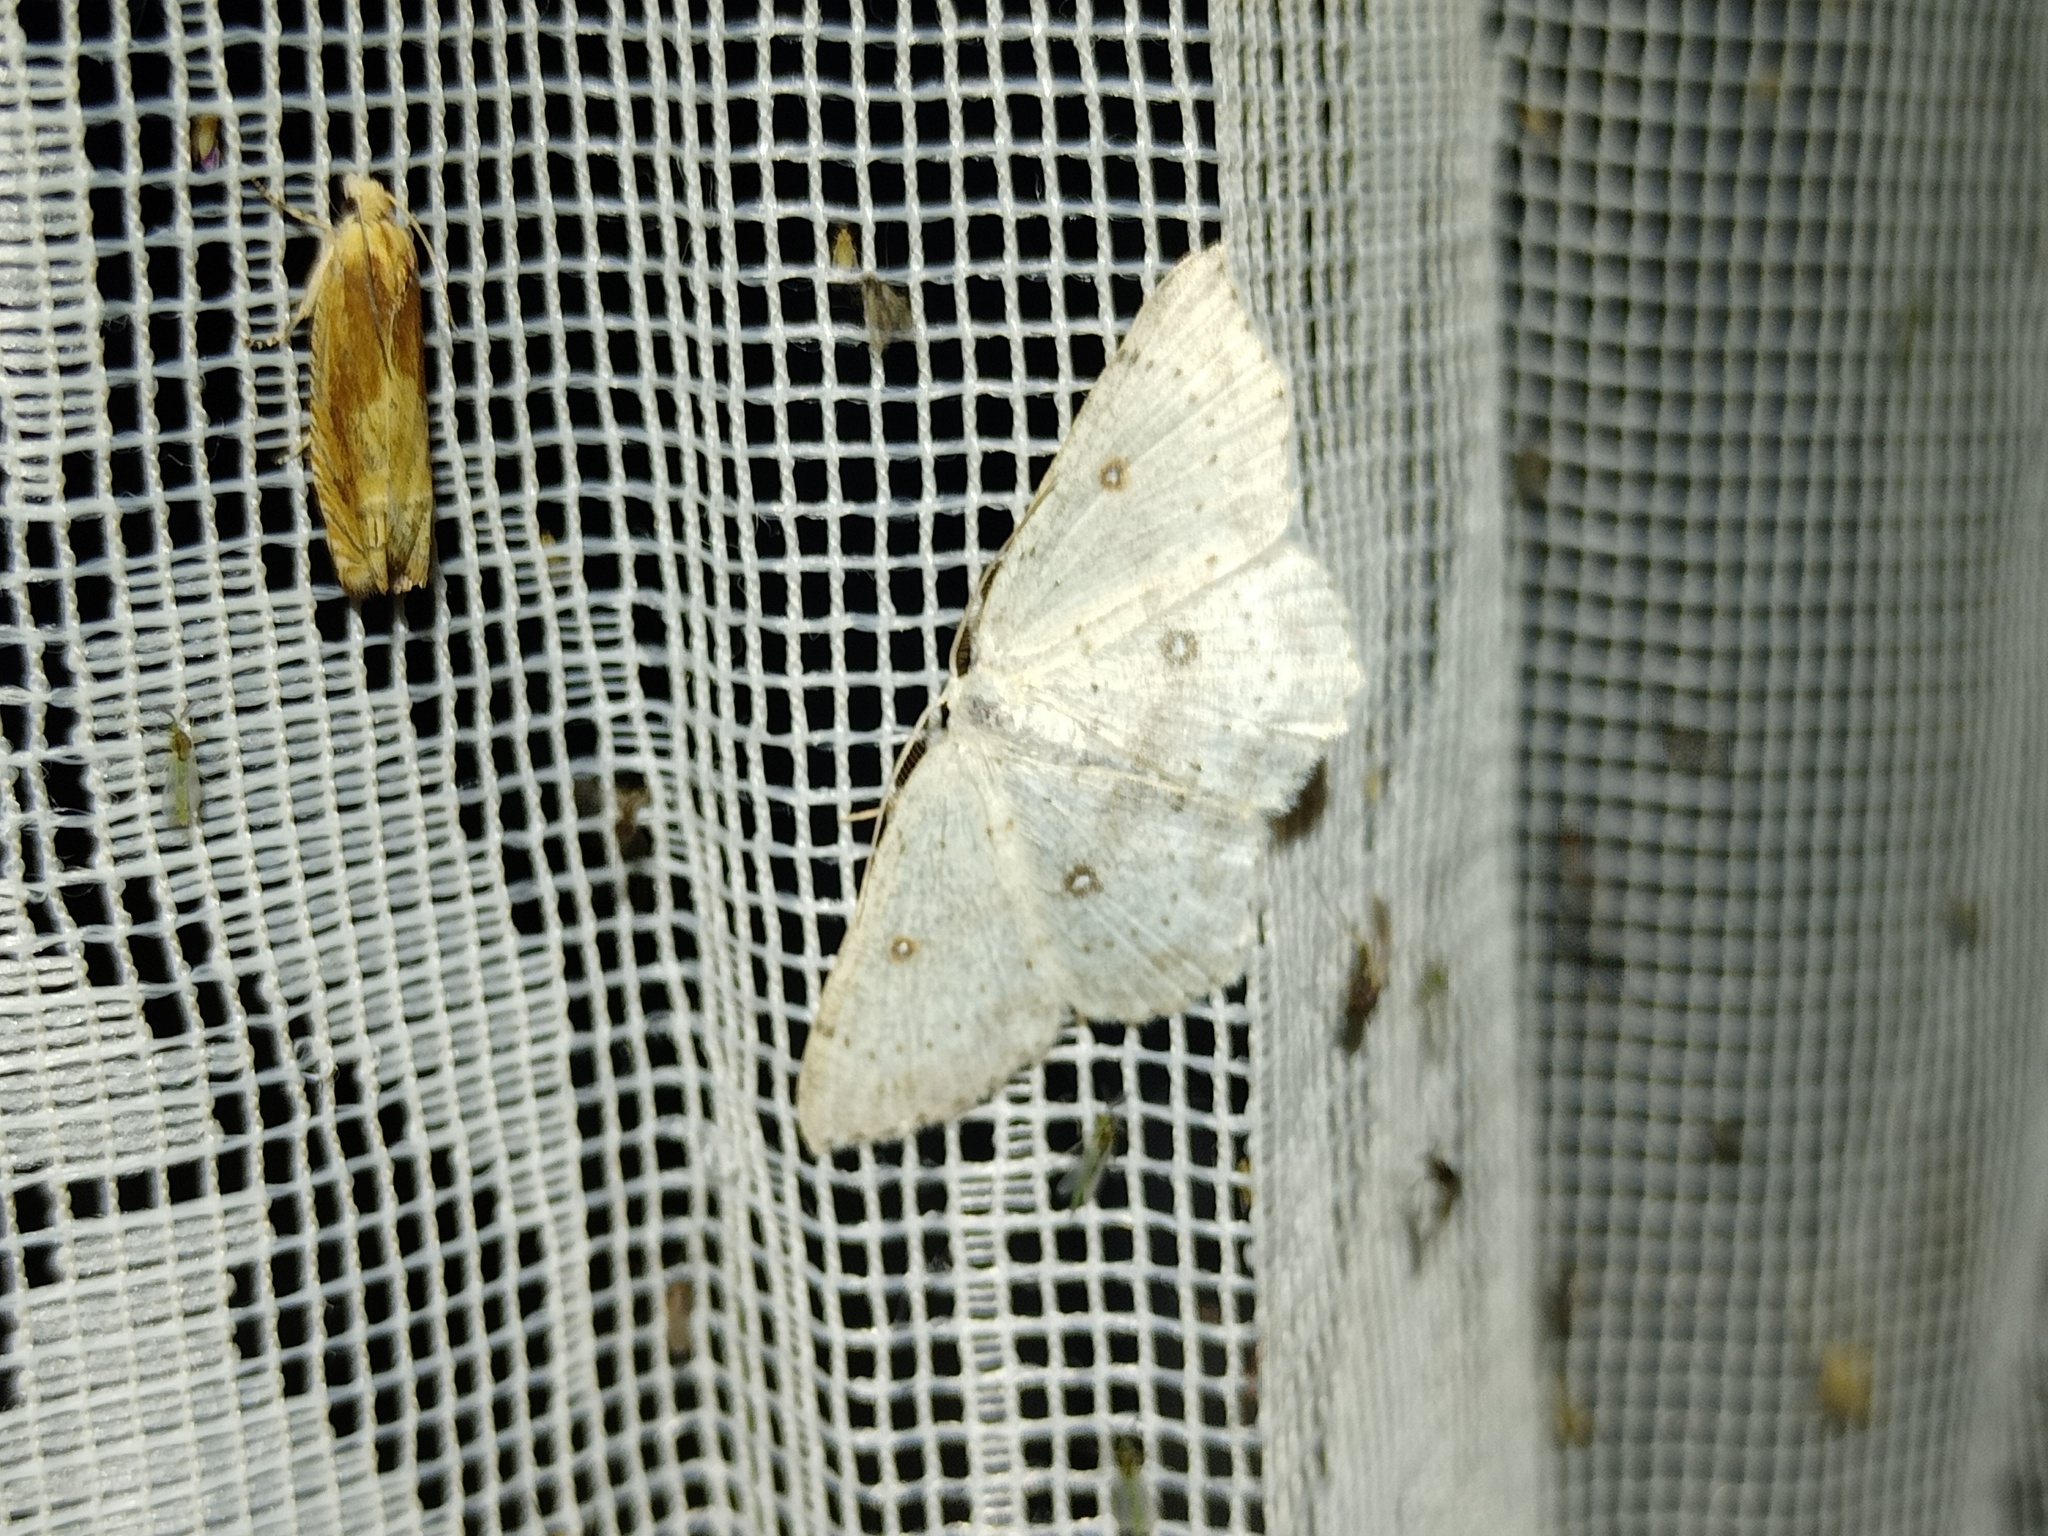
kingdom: Animalia
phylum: Arthropoda
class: Insecta
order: Lepidoptera
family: Geometridae
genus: Cyclophora
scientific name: Cyclophora albipunctata
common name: Birch mocha
